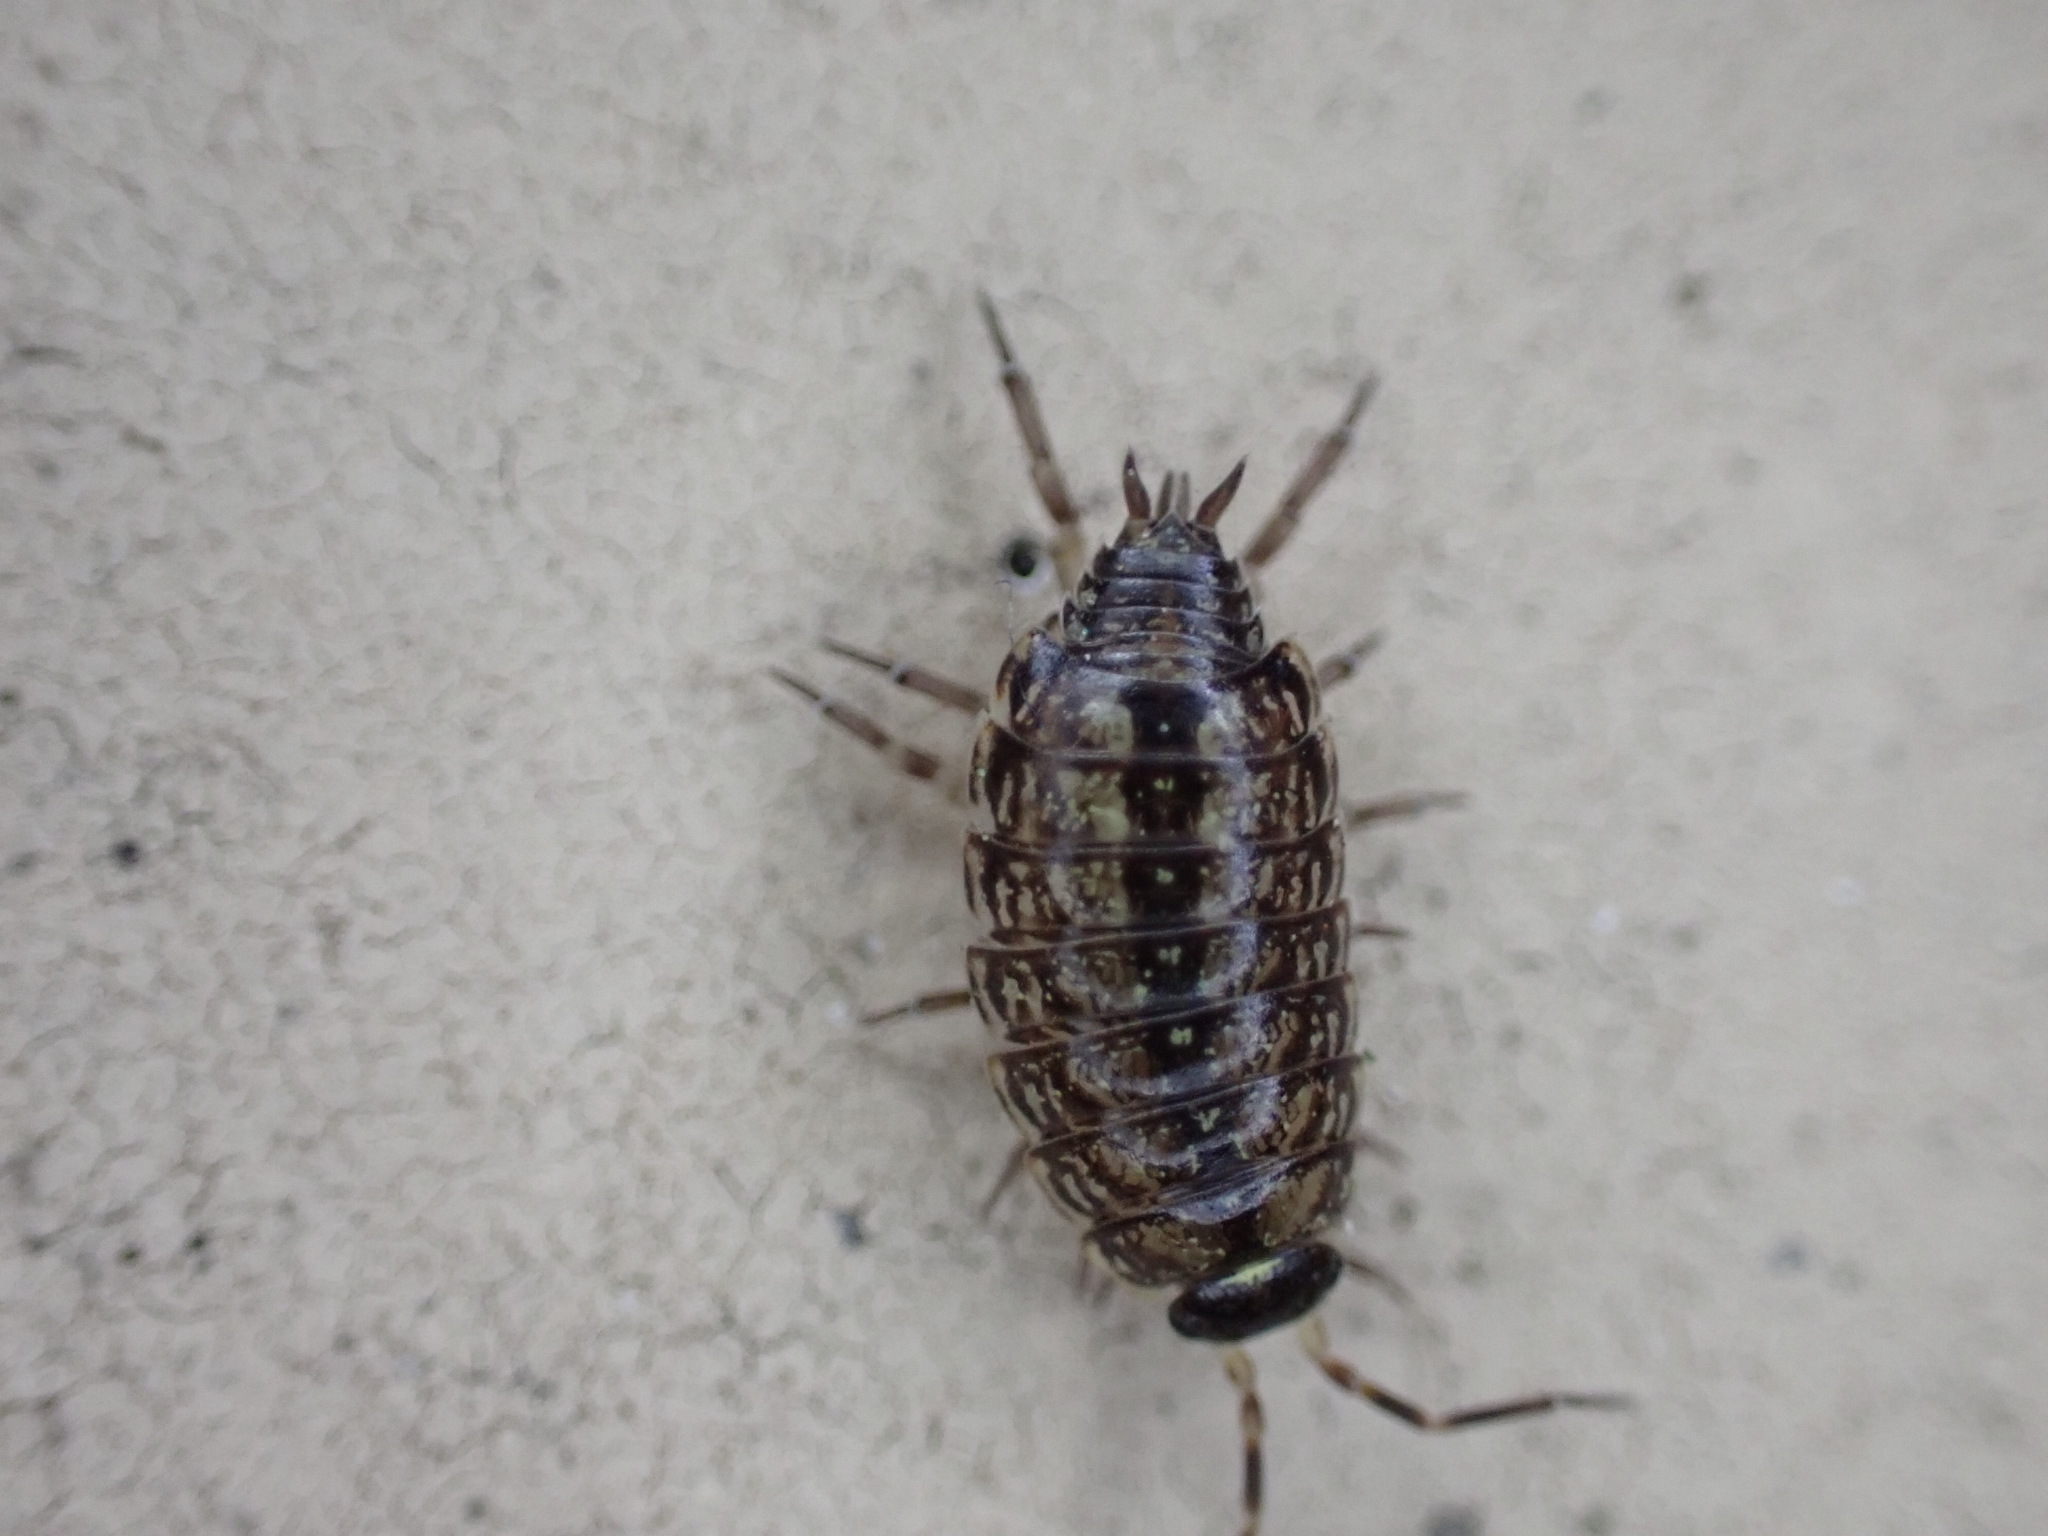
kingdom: Animalia
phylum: Arthropoda
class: Malacostraca
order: Isopoda
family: Philosciidae
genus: Philoscia
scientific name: Philoscia muscorum
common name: Common striped woodlouse
